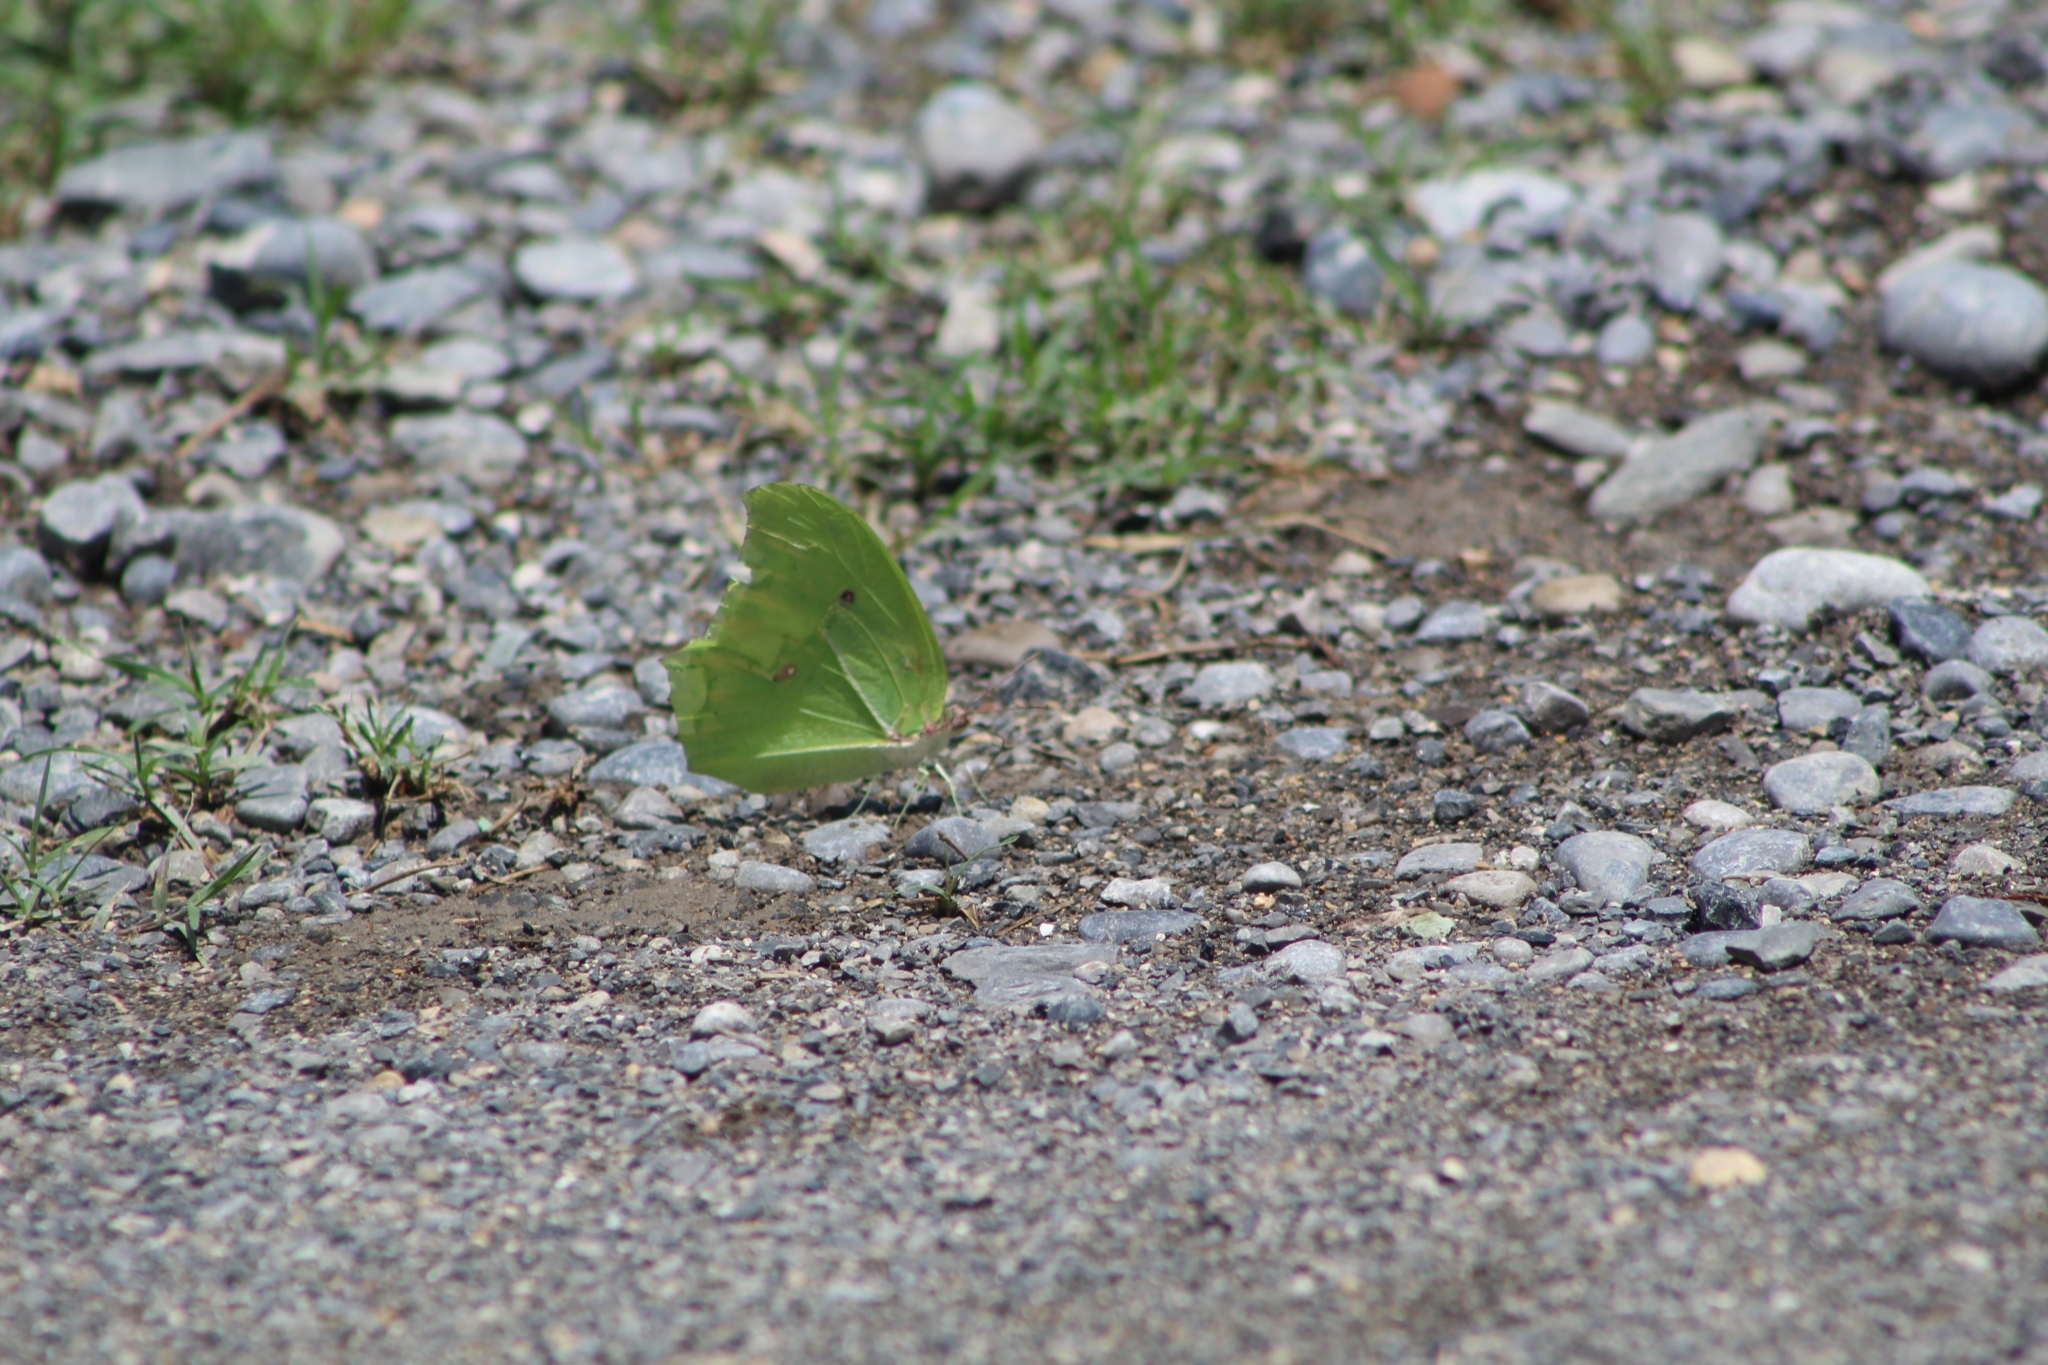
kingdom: Animalia
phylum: Arthropoda
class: Insecta
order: Lepidoptera
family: Pieridae
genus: Anteos
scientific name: Anteos maerula
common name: Angled sulphur
